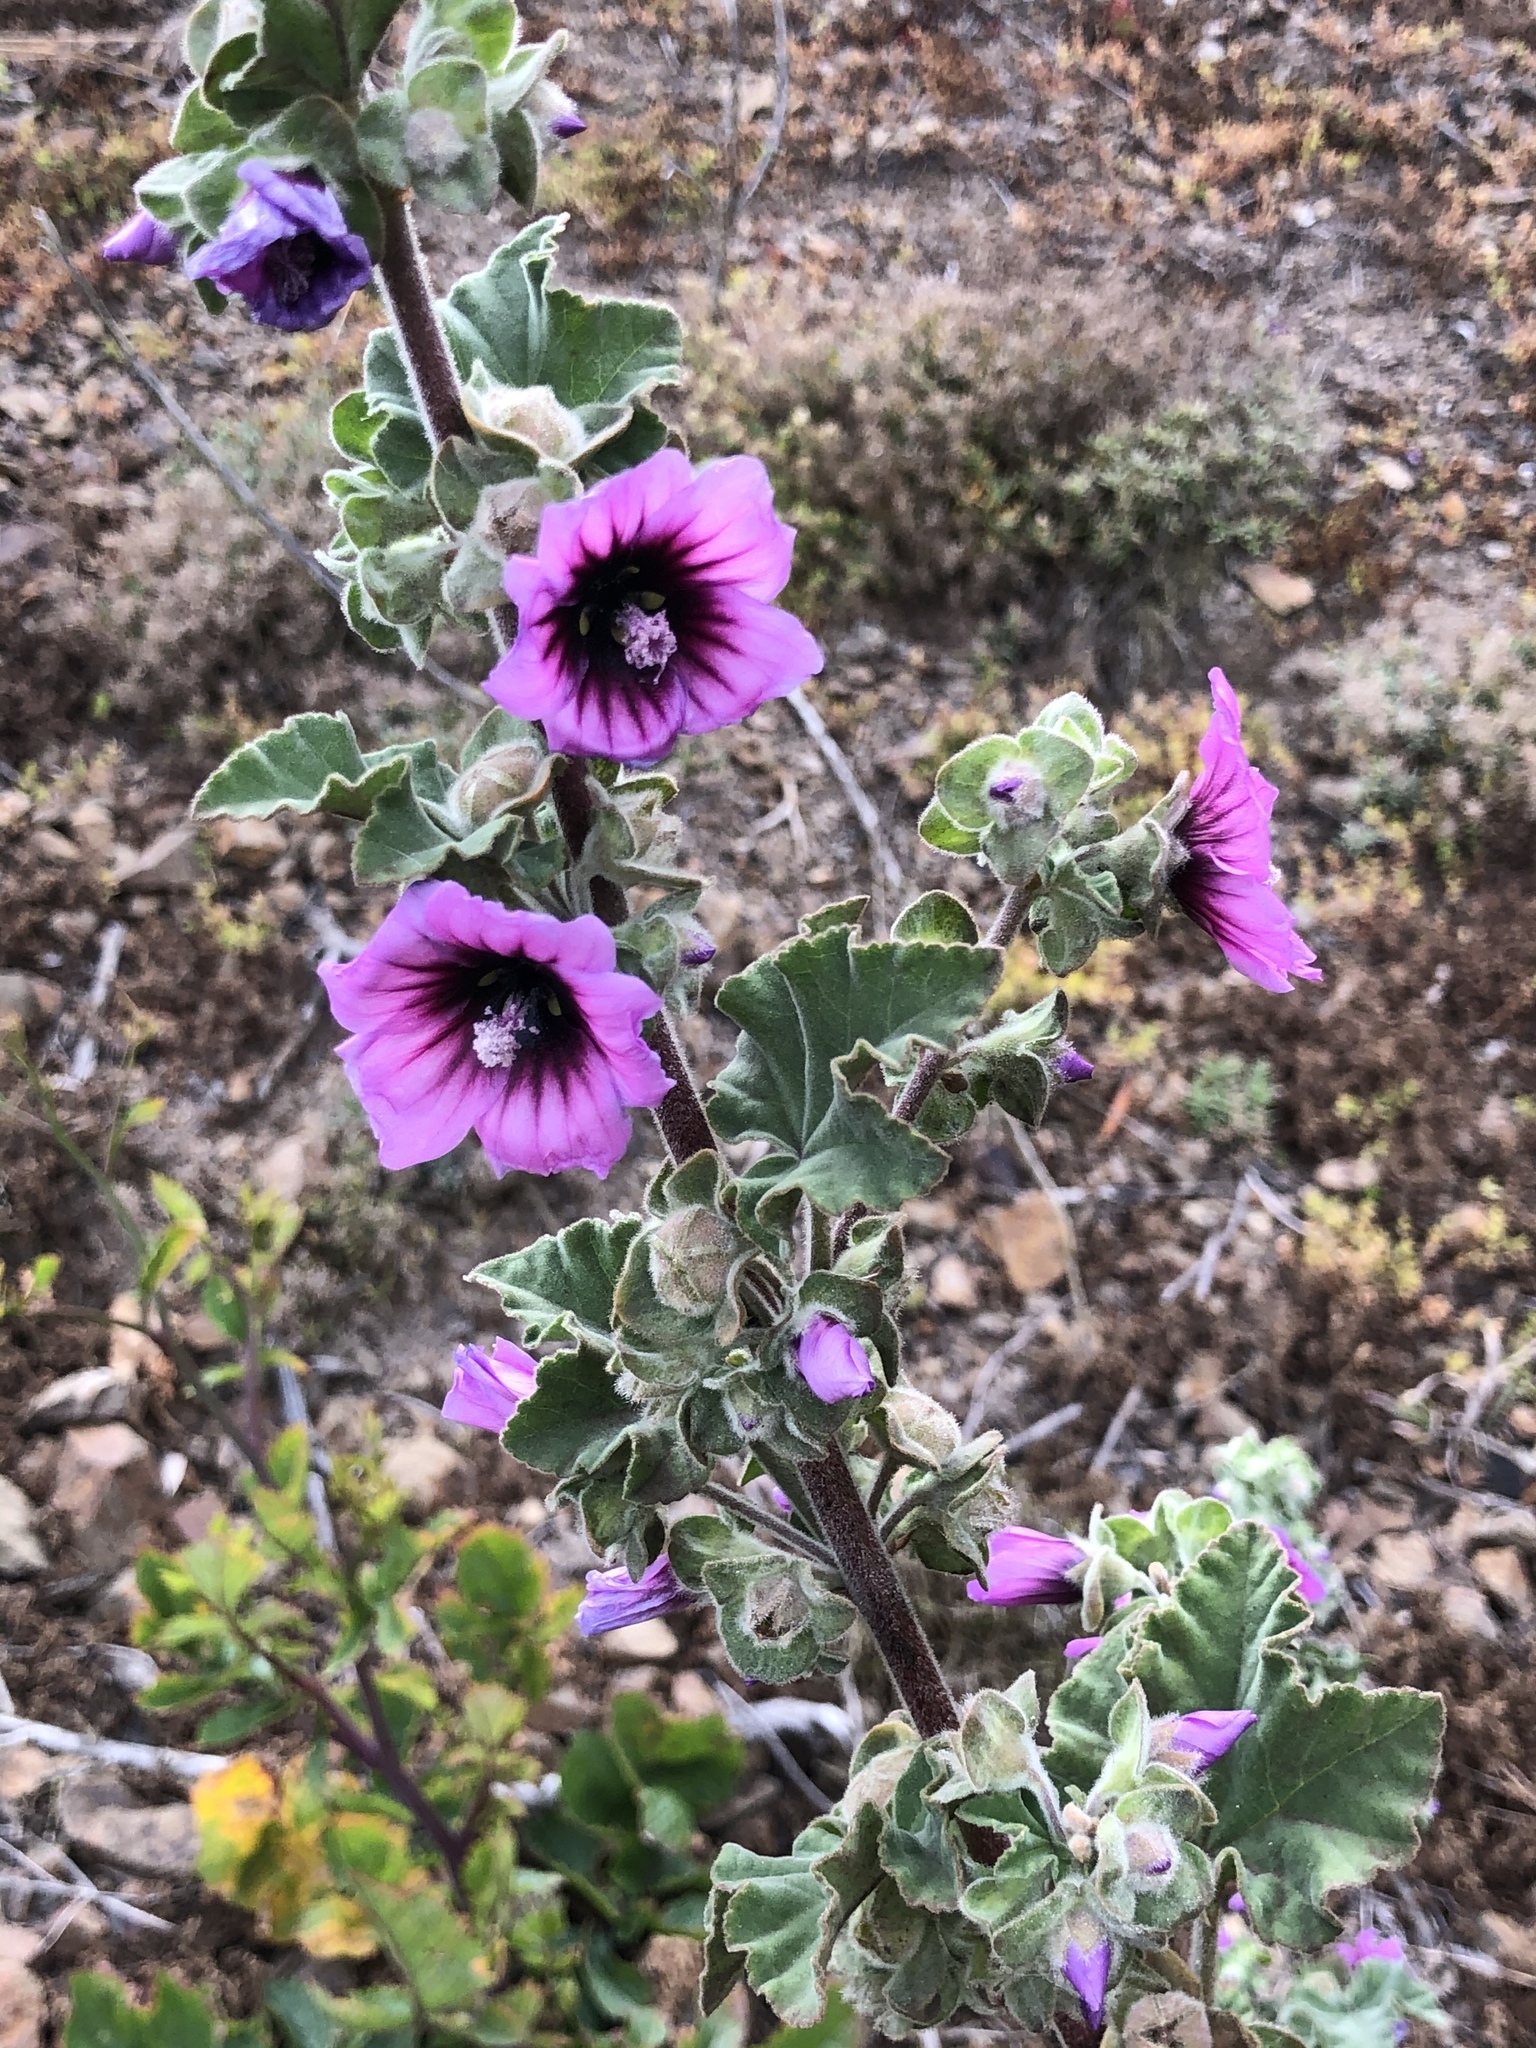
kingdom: Plantae
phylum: Tracheophyta
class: Magnoliopsida
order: Malvales
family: Malvaceae
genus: Malva
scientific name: Malva arborea
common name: Tree mallow
